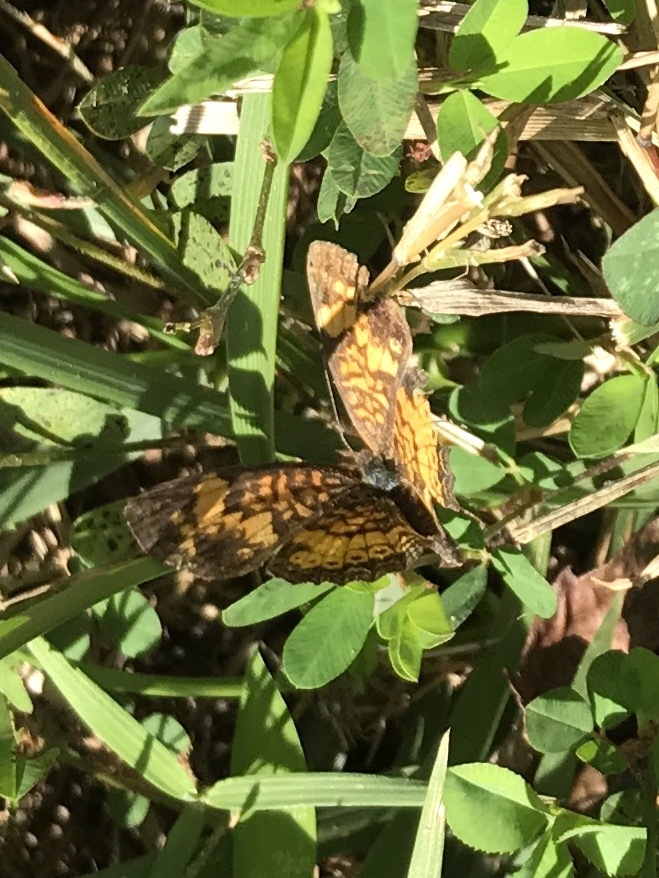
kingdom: Animalia
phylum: Arthropoda
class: Insecta
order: Lepidoptera
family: Nymphalidae
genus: Phyciodes
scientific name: Phyciodes tharos
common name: Pearl crescent
